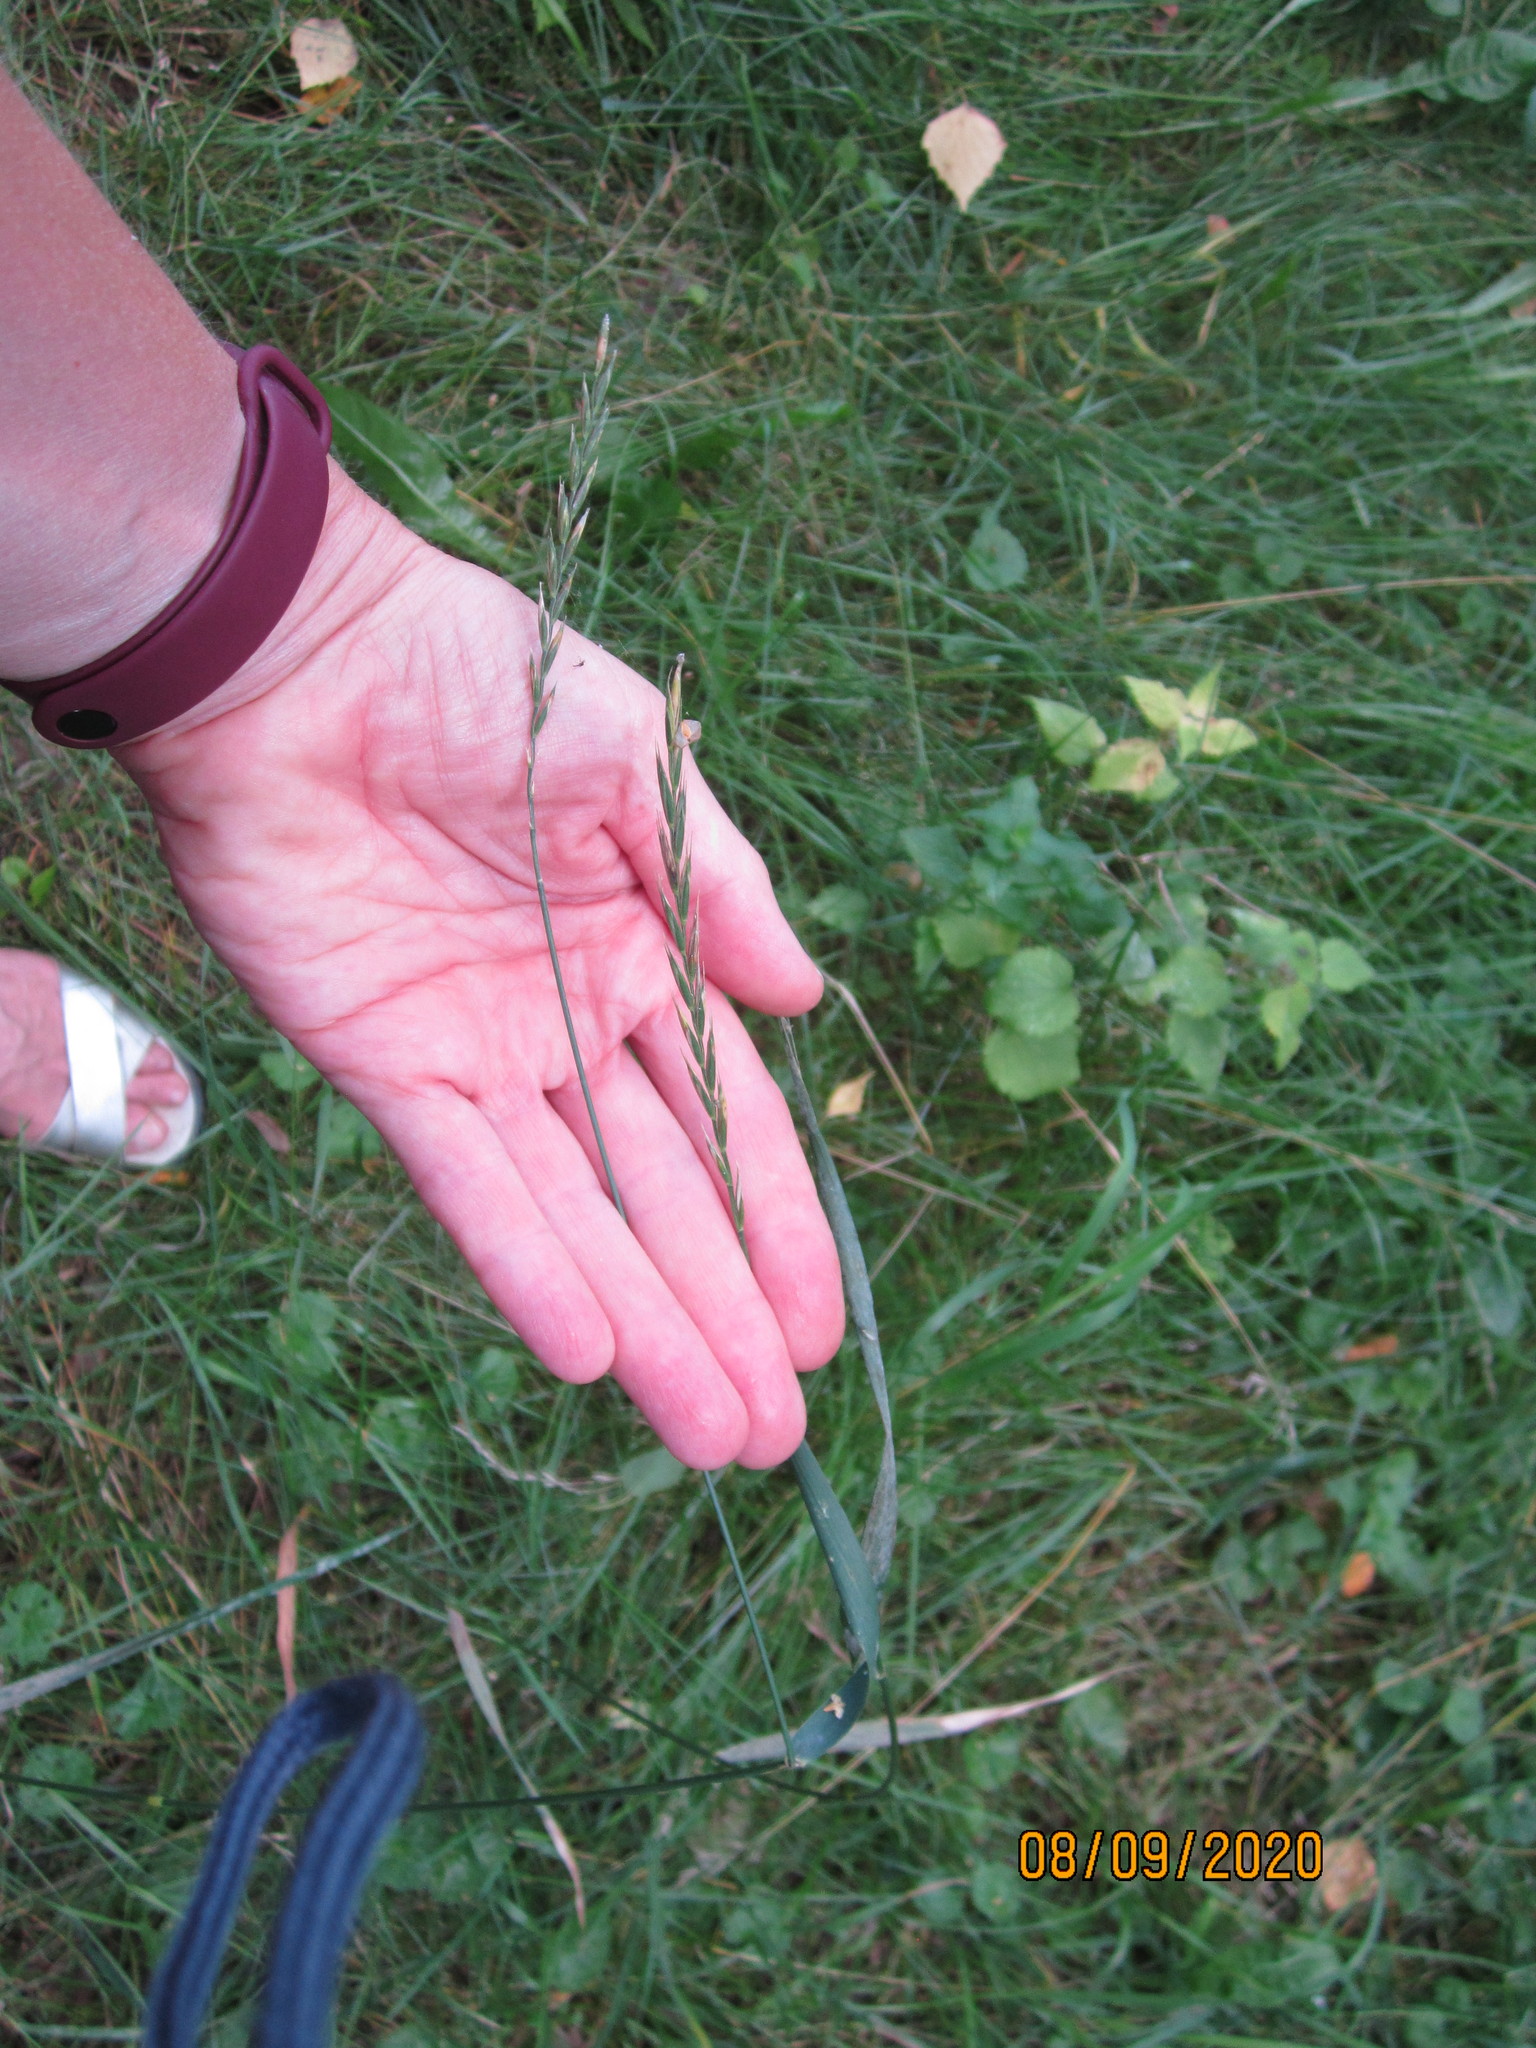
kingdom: Plantae
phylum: Tracheophyta
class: Liliopsida
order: Poales
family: Poaceae
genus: Elymus
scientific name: Elymus repens
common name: Quackgrass
